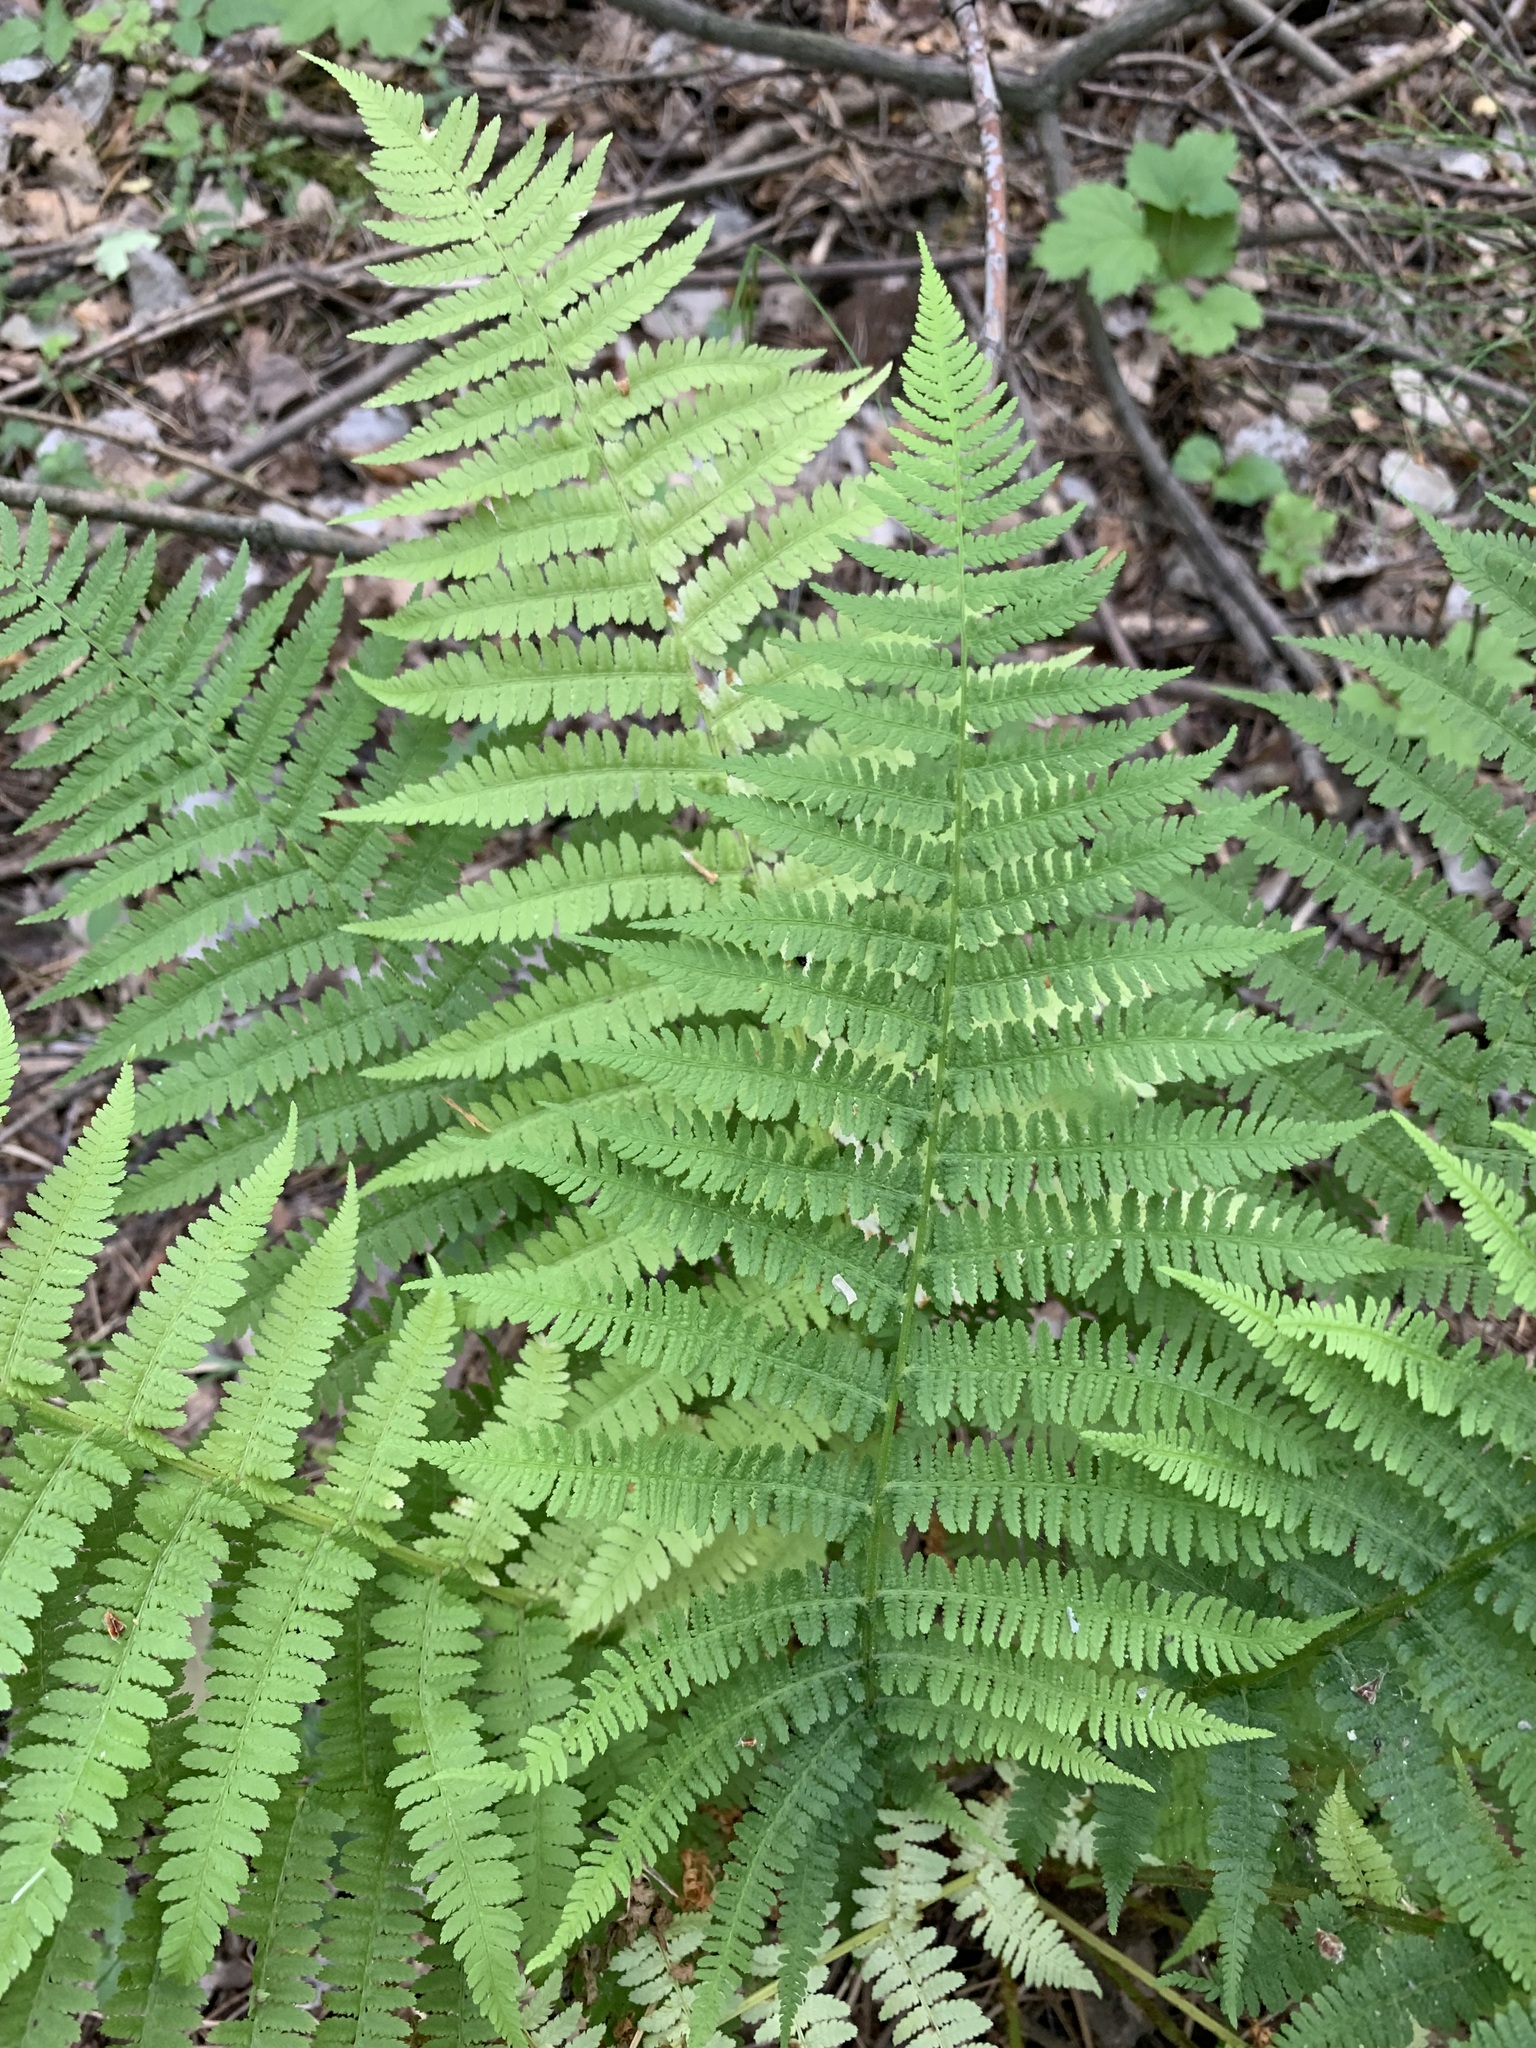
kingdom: Plantae
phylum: Tracheophyta
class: Polypodiopsida
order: Polypodiales
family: Athyriaceae
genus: Athyrium
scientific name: Athyrium filix-femina
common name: Lady fern
